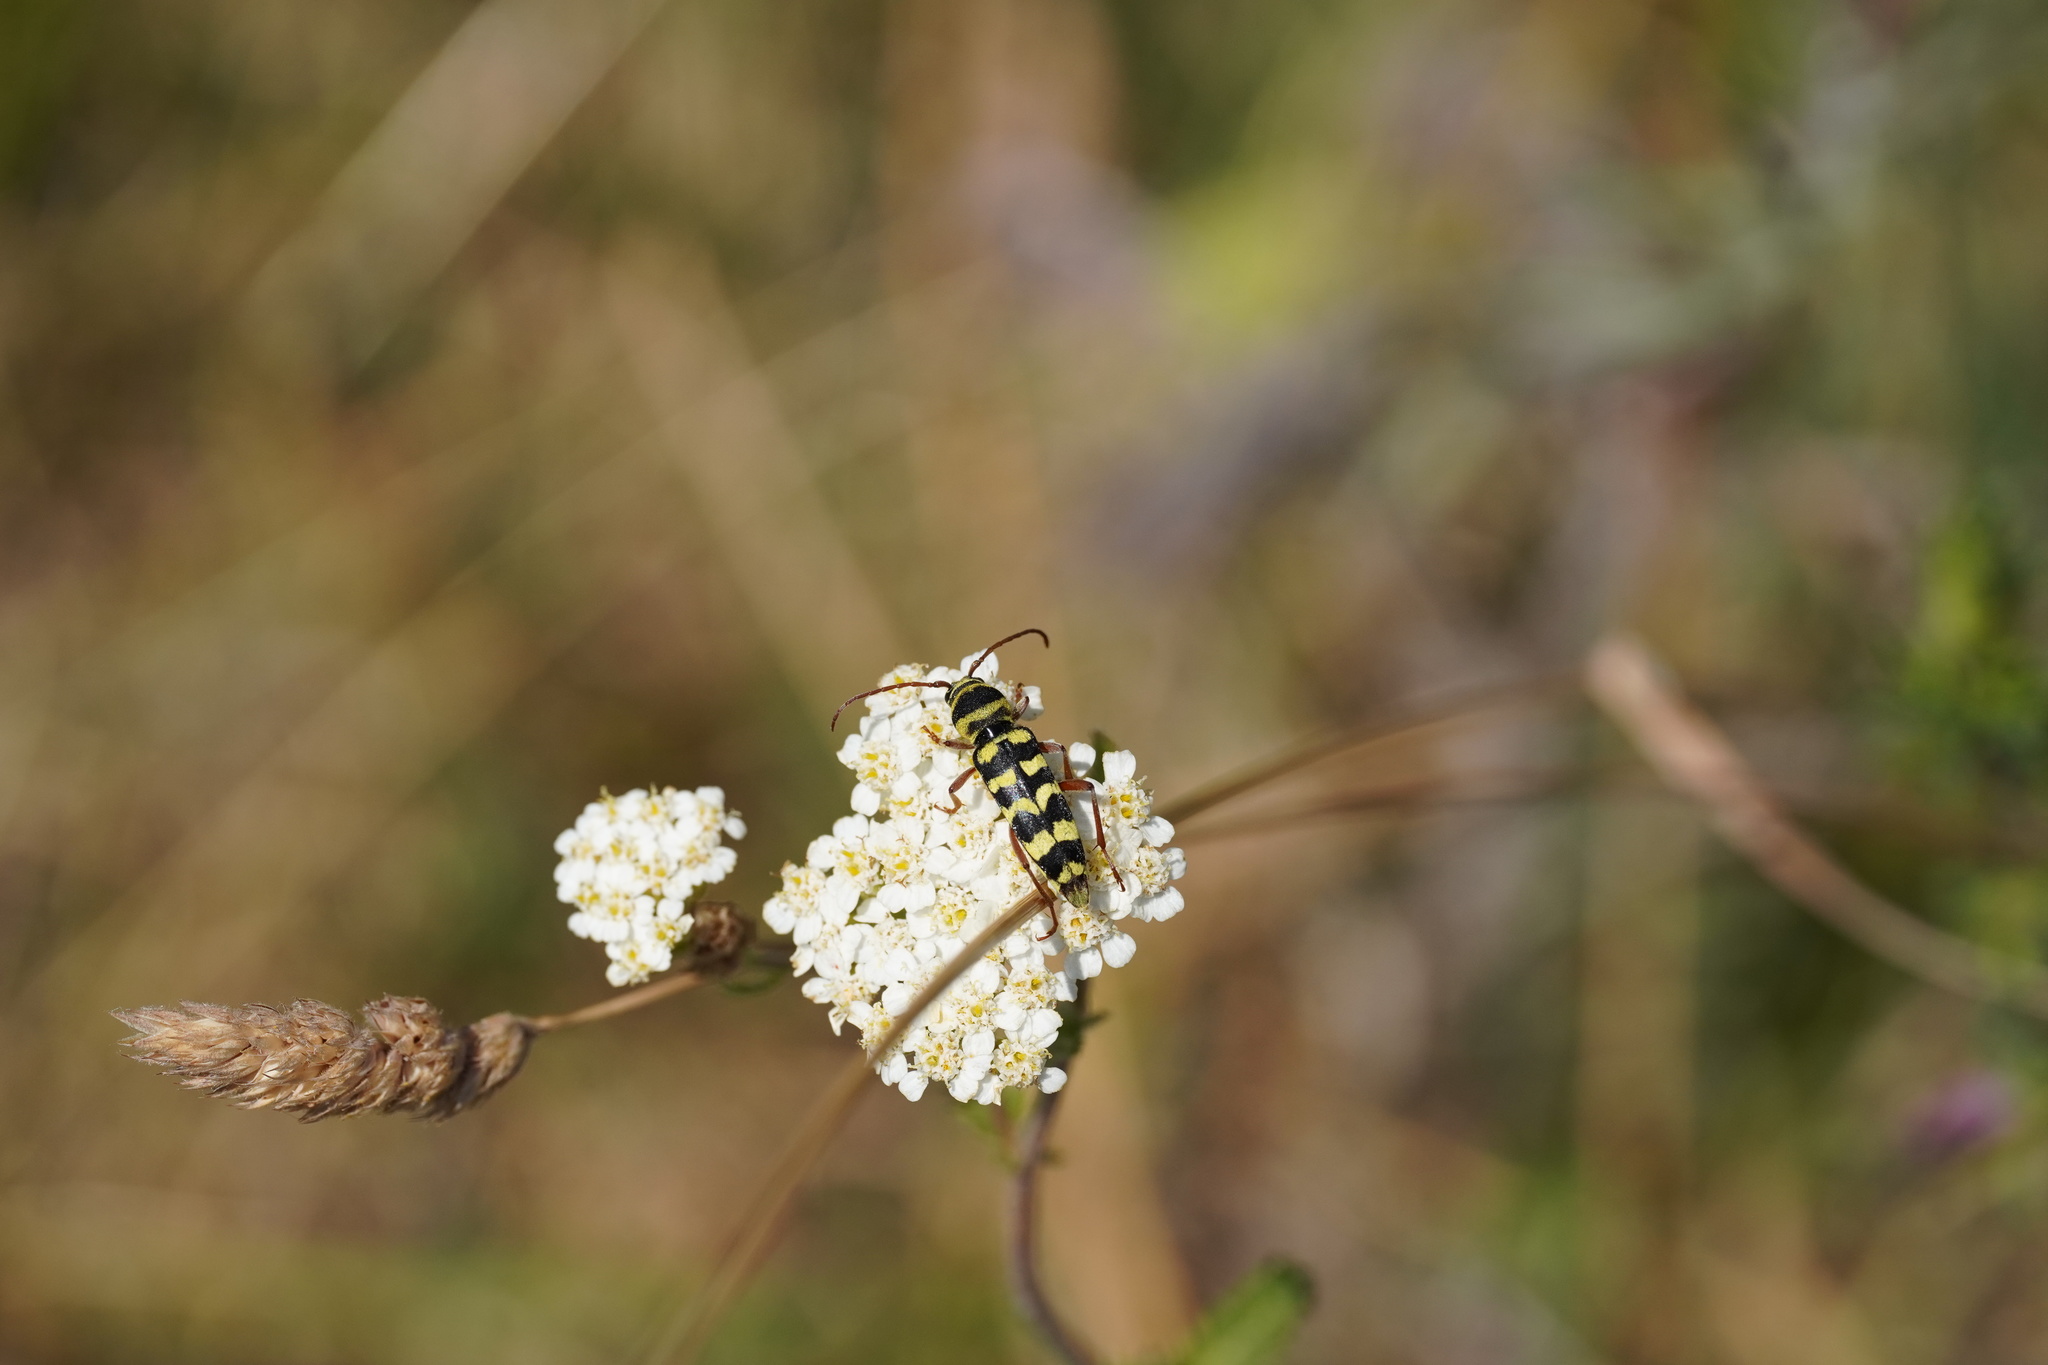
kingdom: Animalia
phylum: Arthropoda
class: Insecta
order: Coleoptera
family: Cerambycidae
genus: Plagionotus
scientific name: Plagionotus floralis
